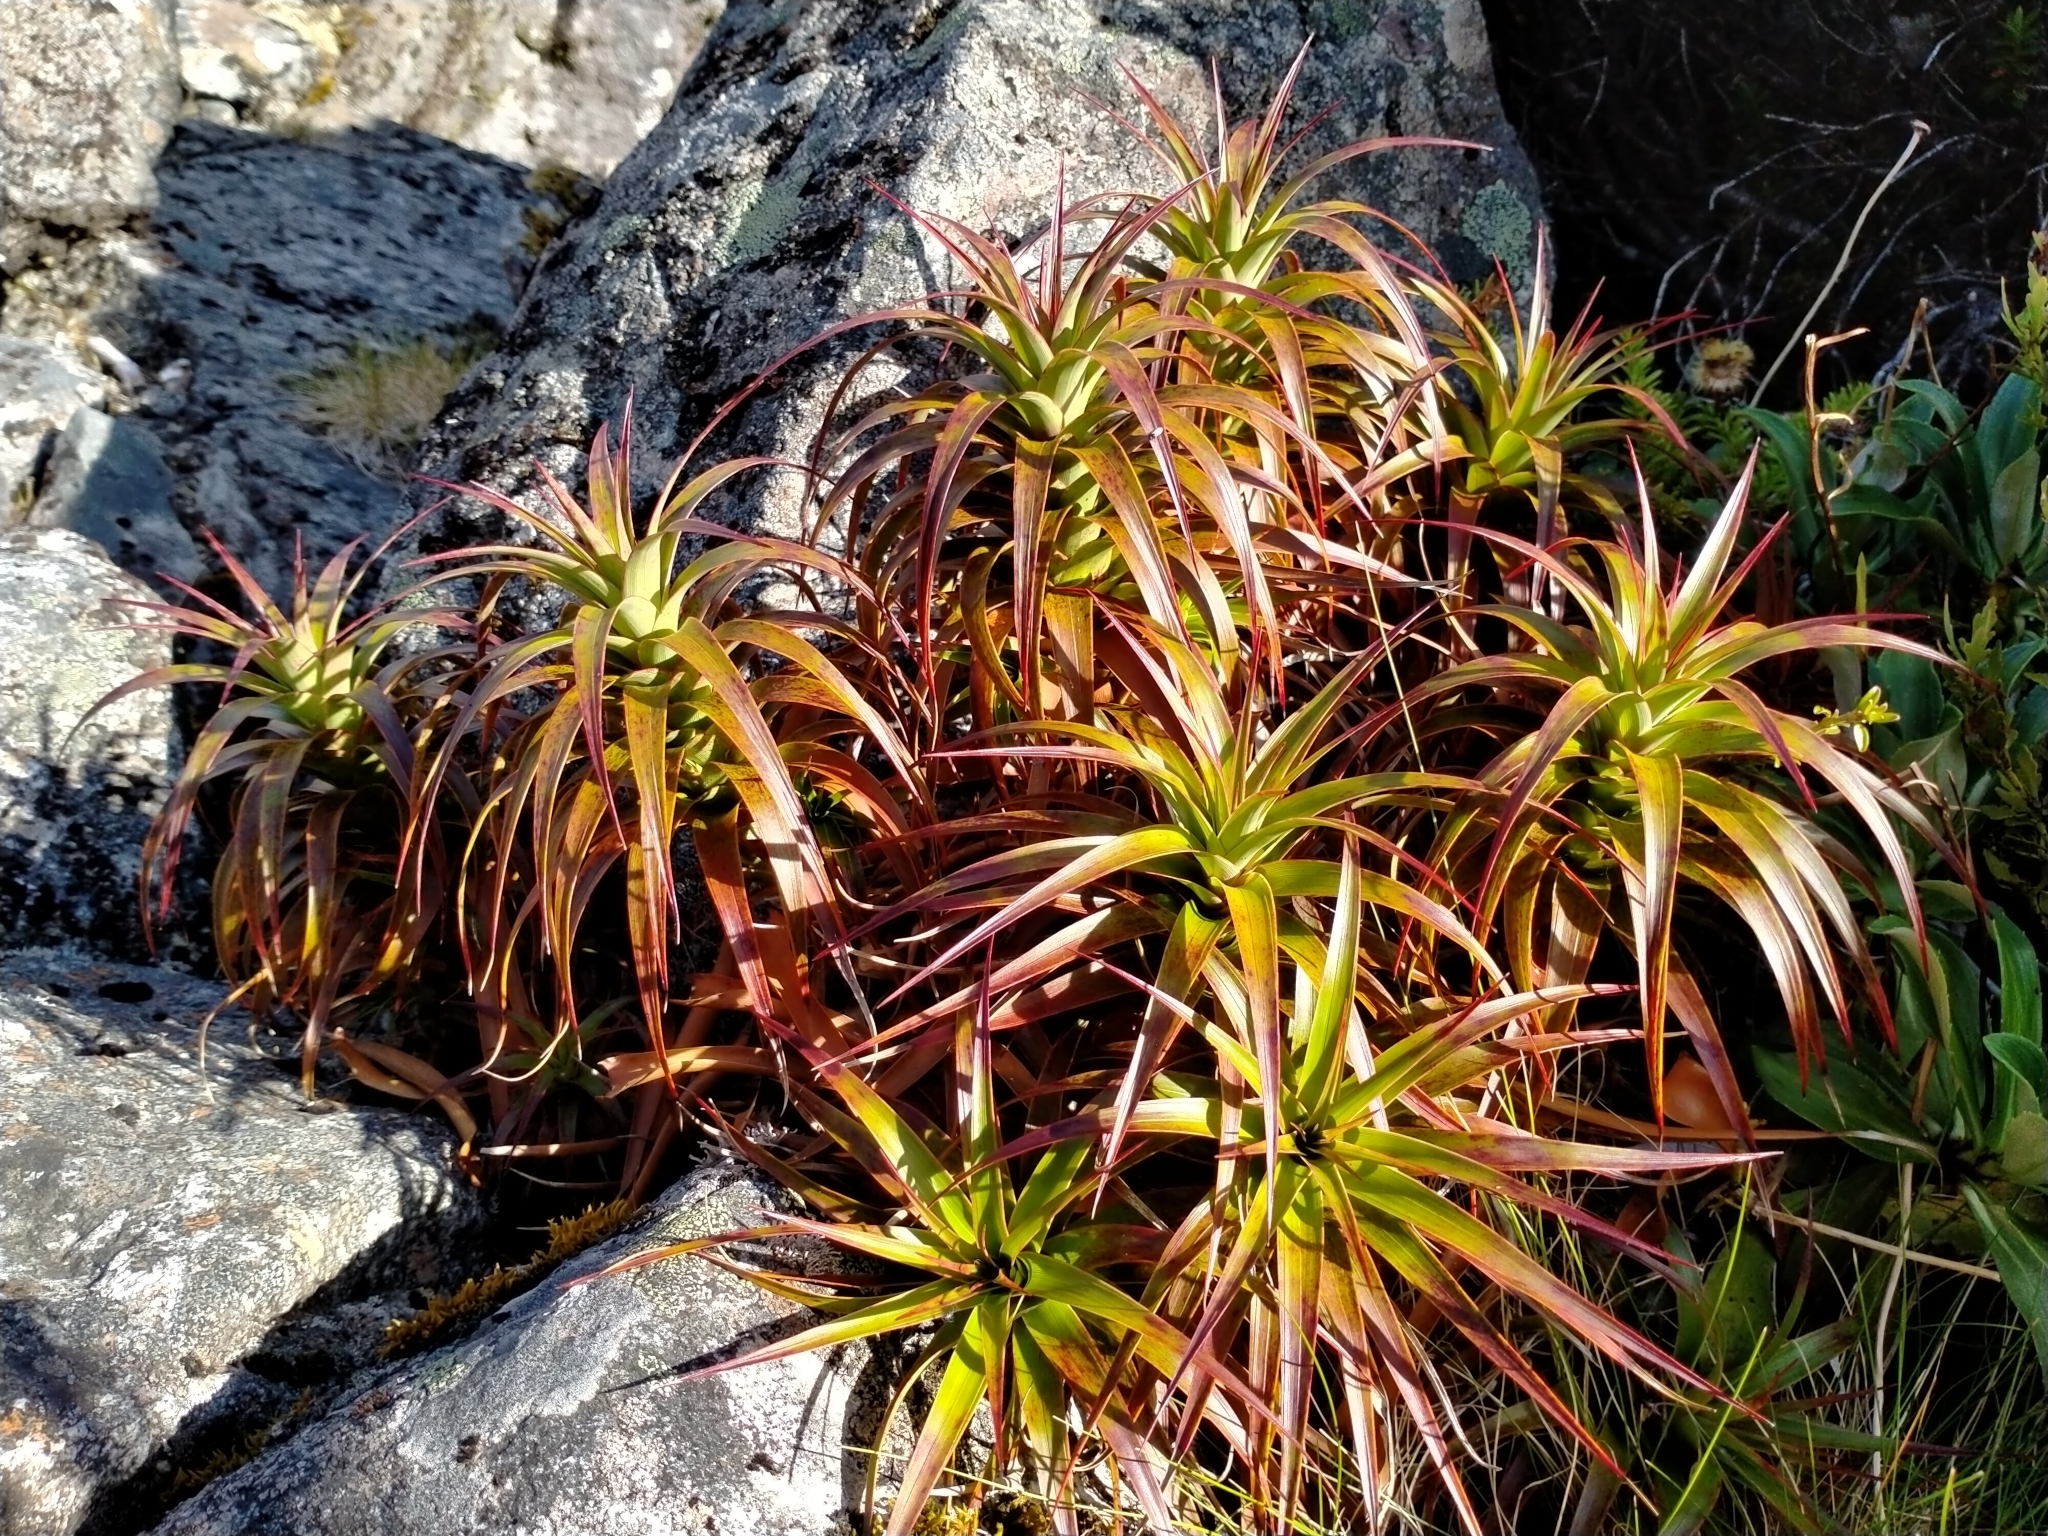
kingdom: Plantae
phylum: Tracheophyta
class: Magnoliopsida
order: Ericales
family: Ericaceae
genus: Dracophyllum
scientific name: Dracophyllum menziesii
